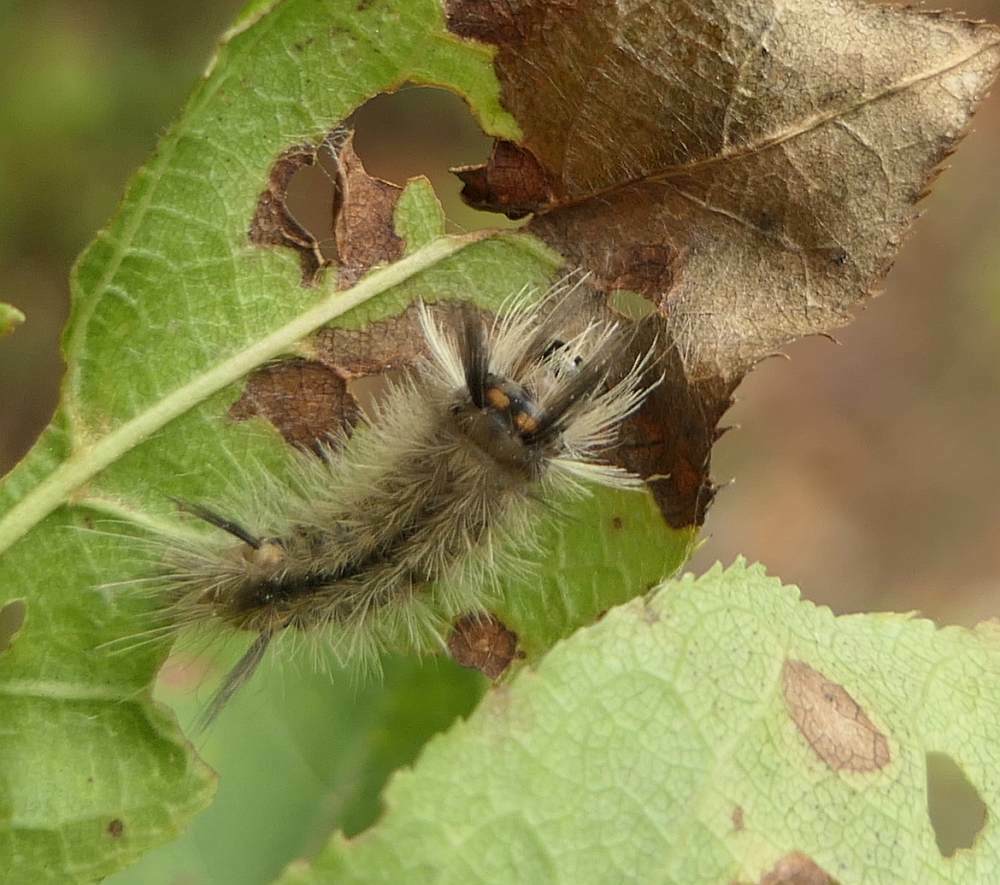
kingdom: Animalia
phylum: Arthropoda
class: Insecta
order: Lepidoptera
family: Erebidae
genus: Halysidota
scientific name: Halysidota tessellaris
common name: Banded tussock moth
